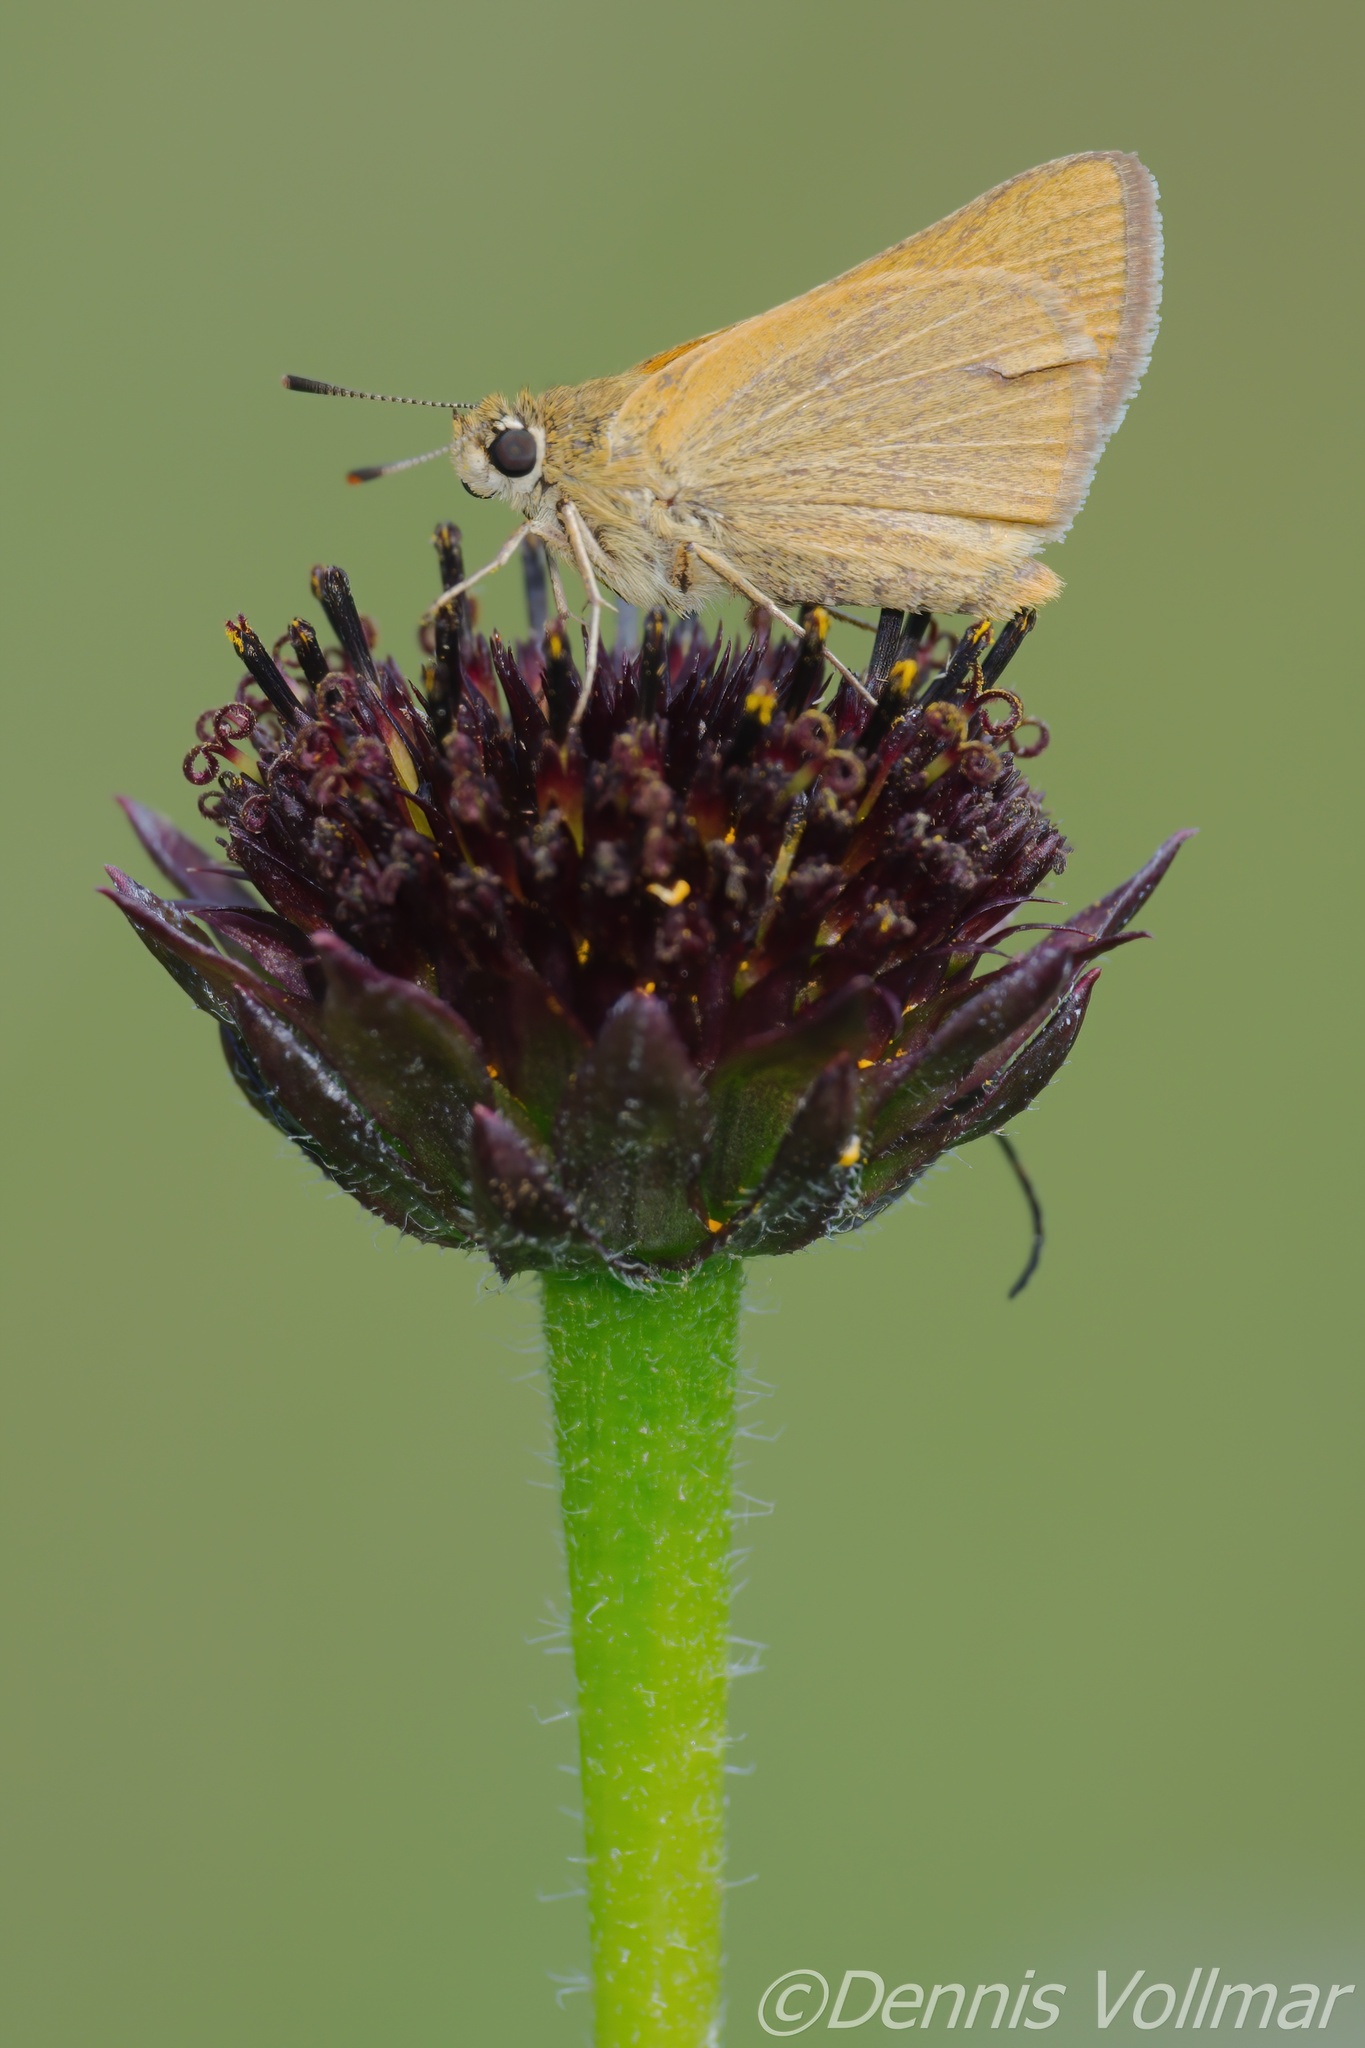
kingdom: Animalia
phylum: Arthropoda
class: Insecta
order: Lepidoptera
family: Hesperiidae
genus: Atrytone
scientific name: Atrytone arogos
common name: Arogos skipper
